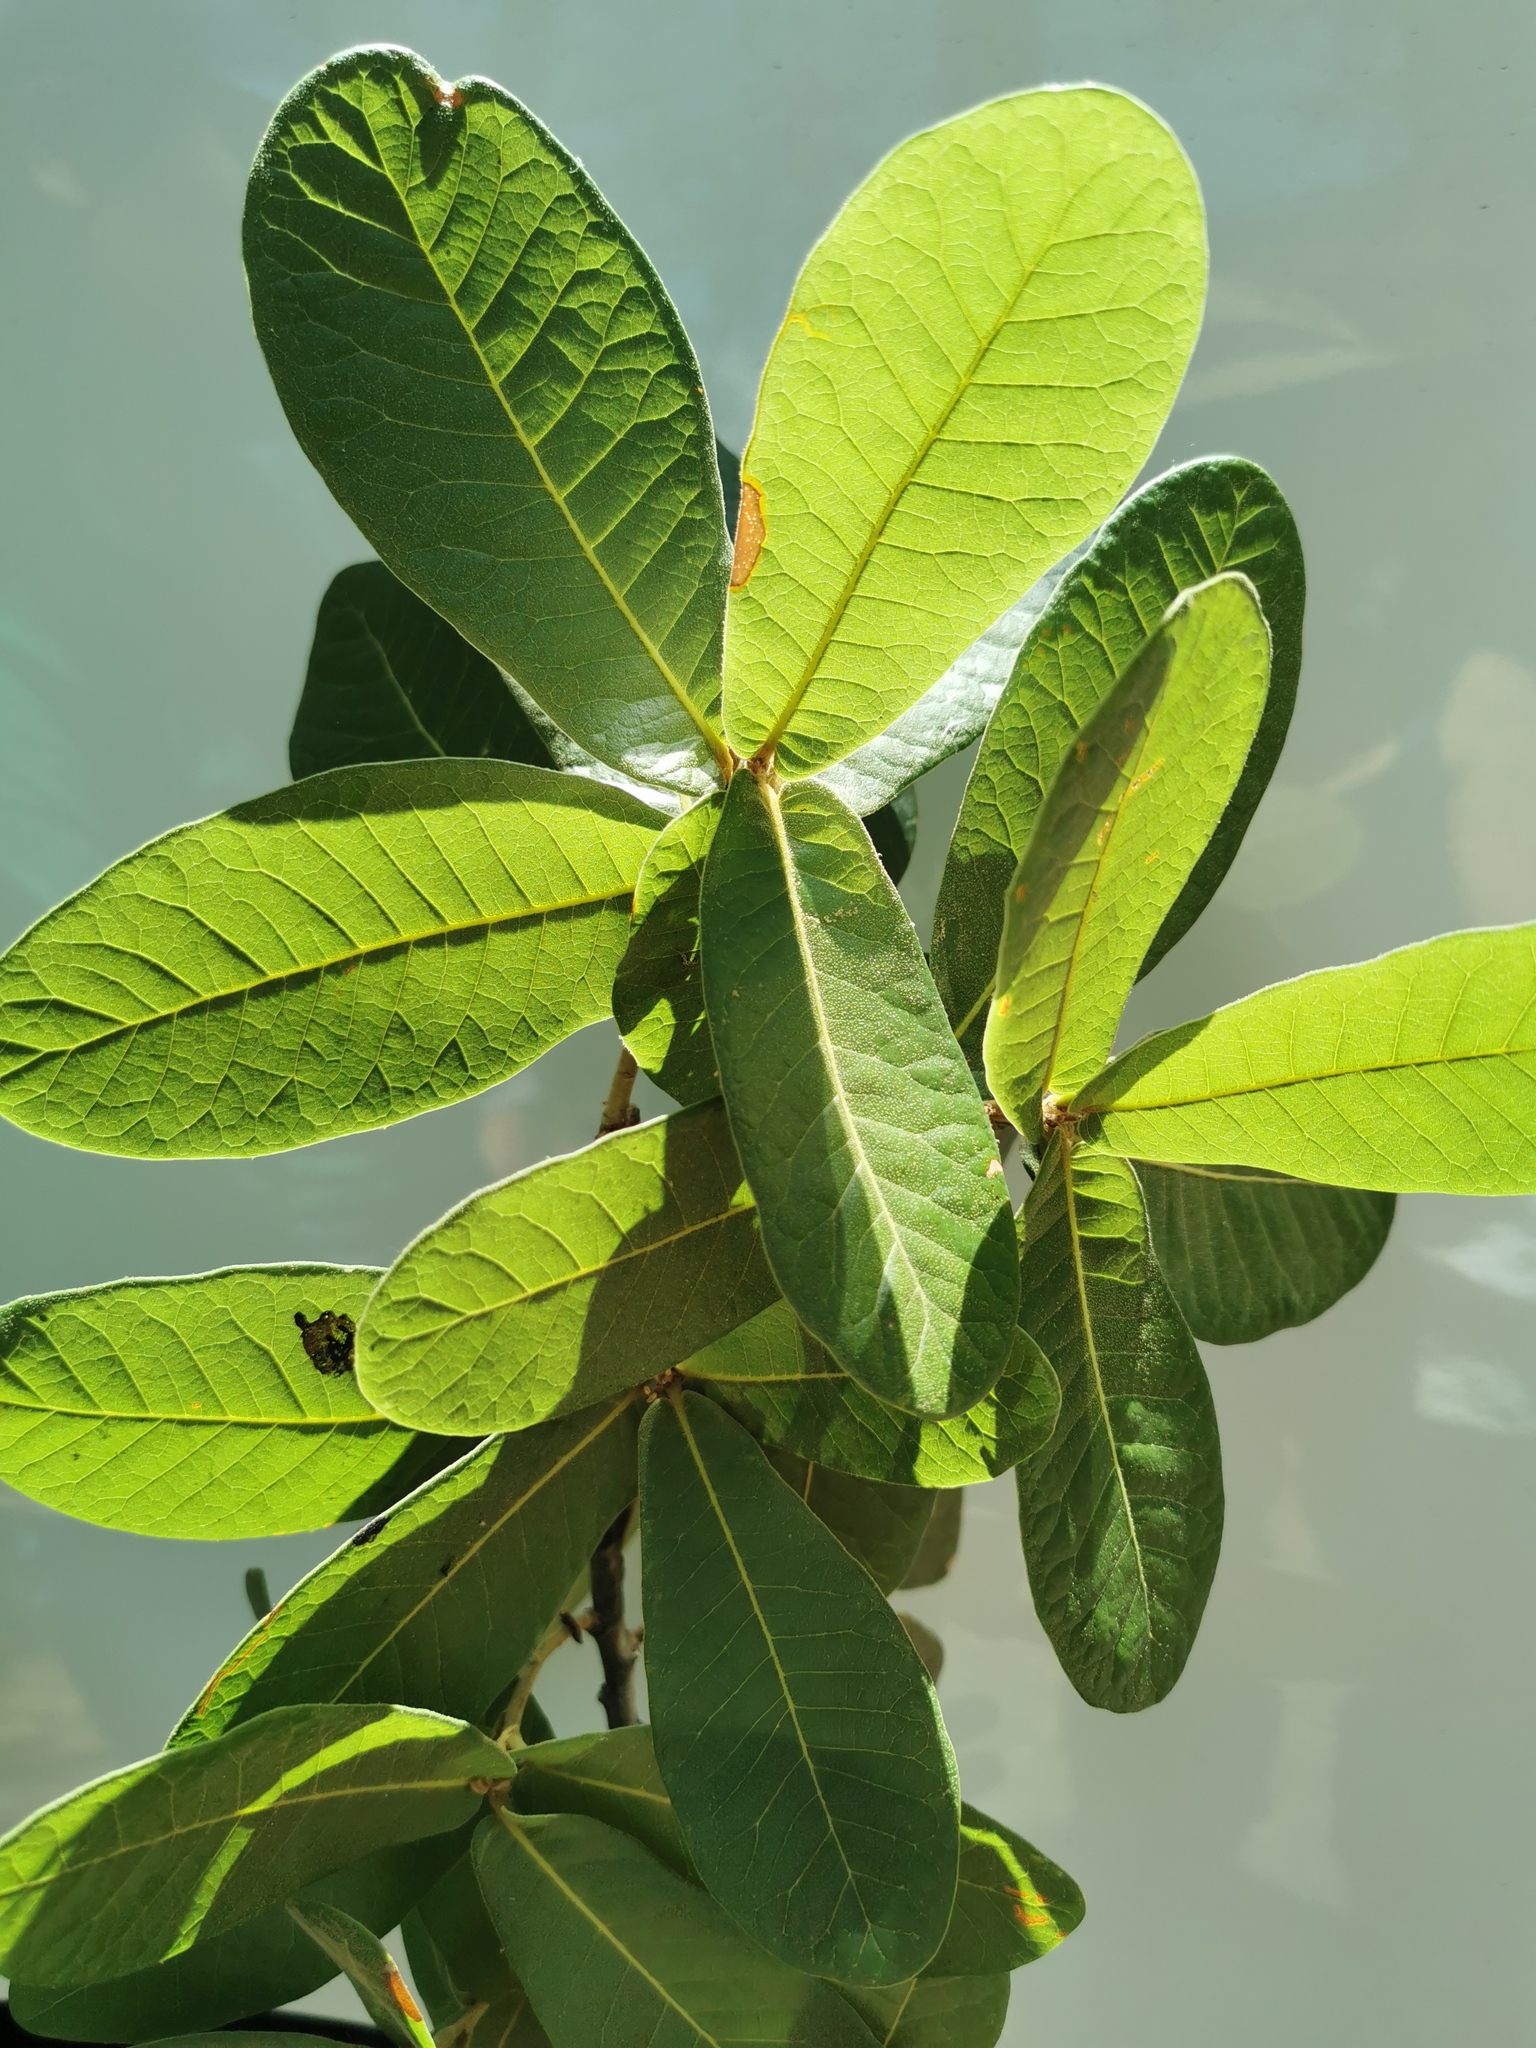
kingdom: Plantae
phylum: Tracheophyta
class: Magnoliopsida
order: Fagales
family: Fagaceae
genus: Quercus
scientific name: Quercus elliptica
